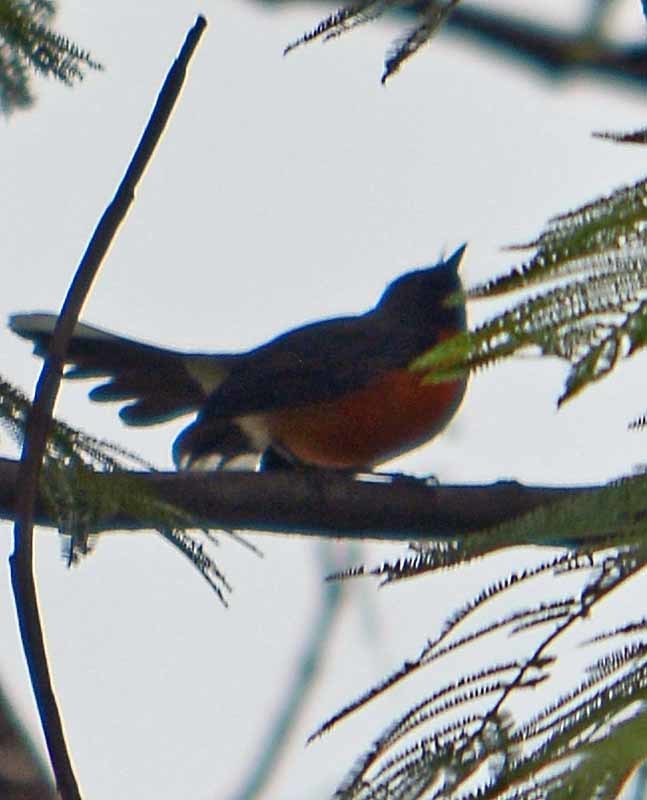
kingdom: Animalia
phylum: Chordata
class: Aves
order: Passeriformes
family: Parulidae
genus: Myioborus
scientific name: Myioborus miniatus
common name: Slate-throated redstart
